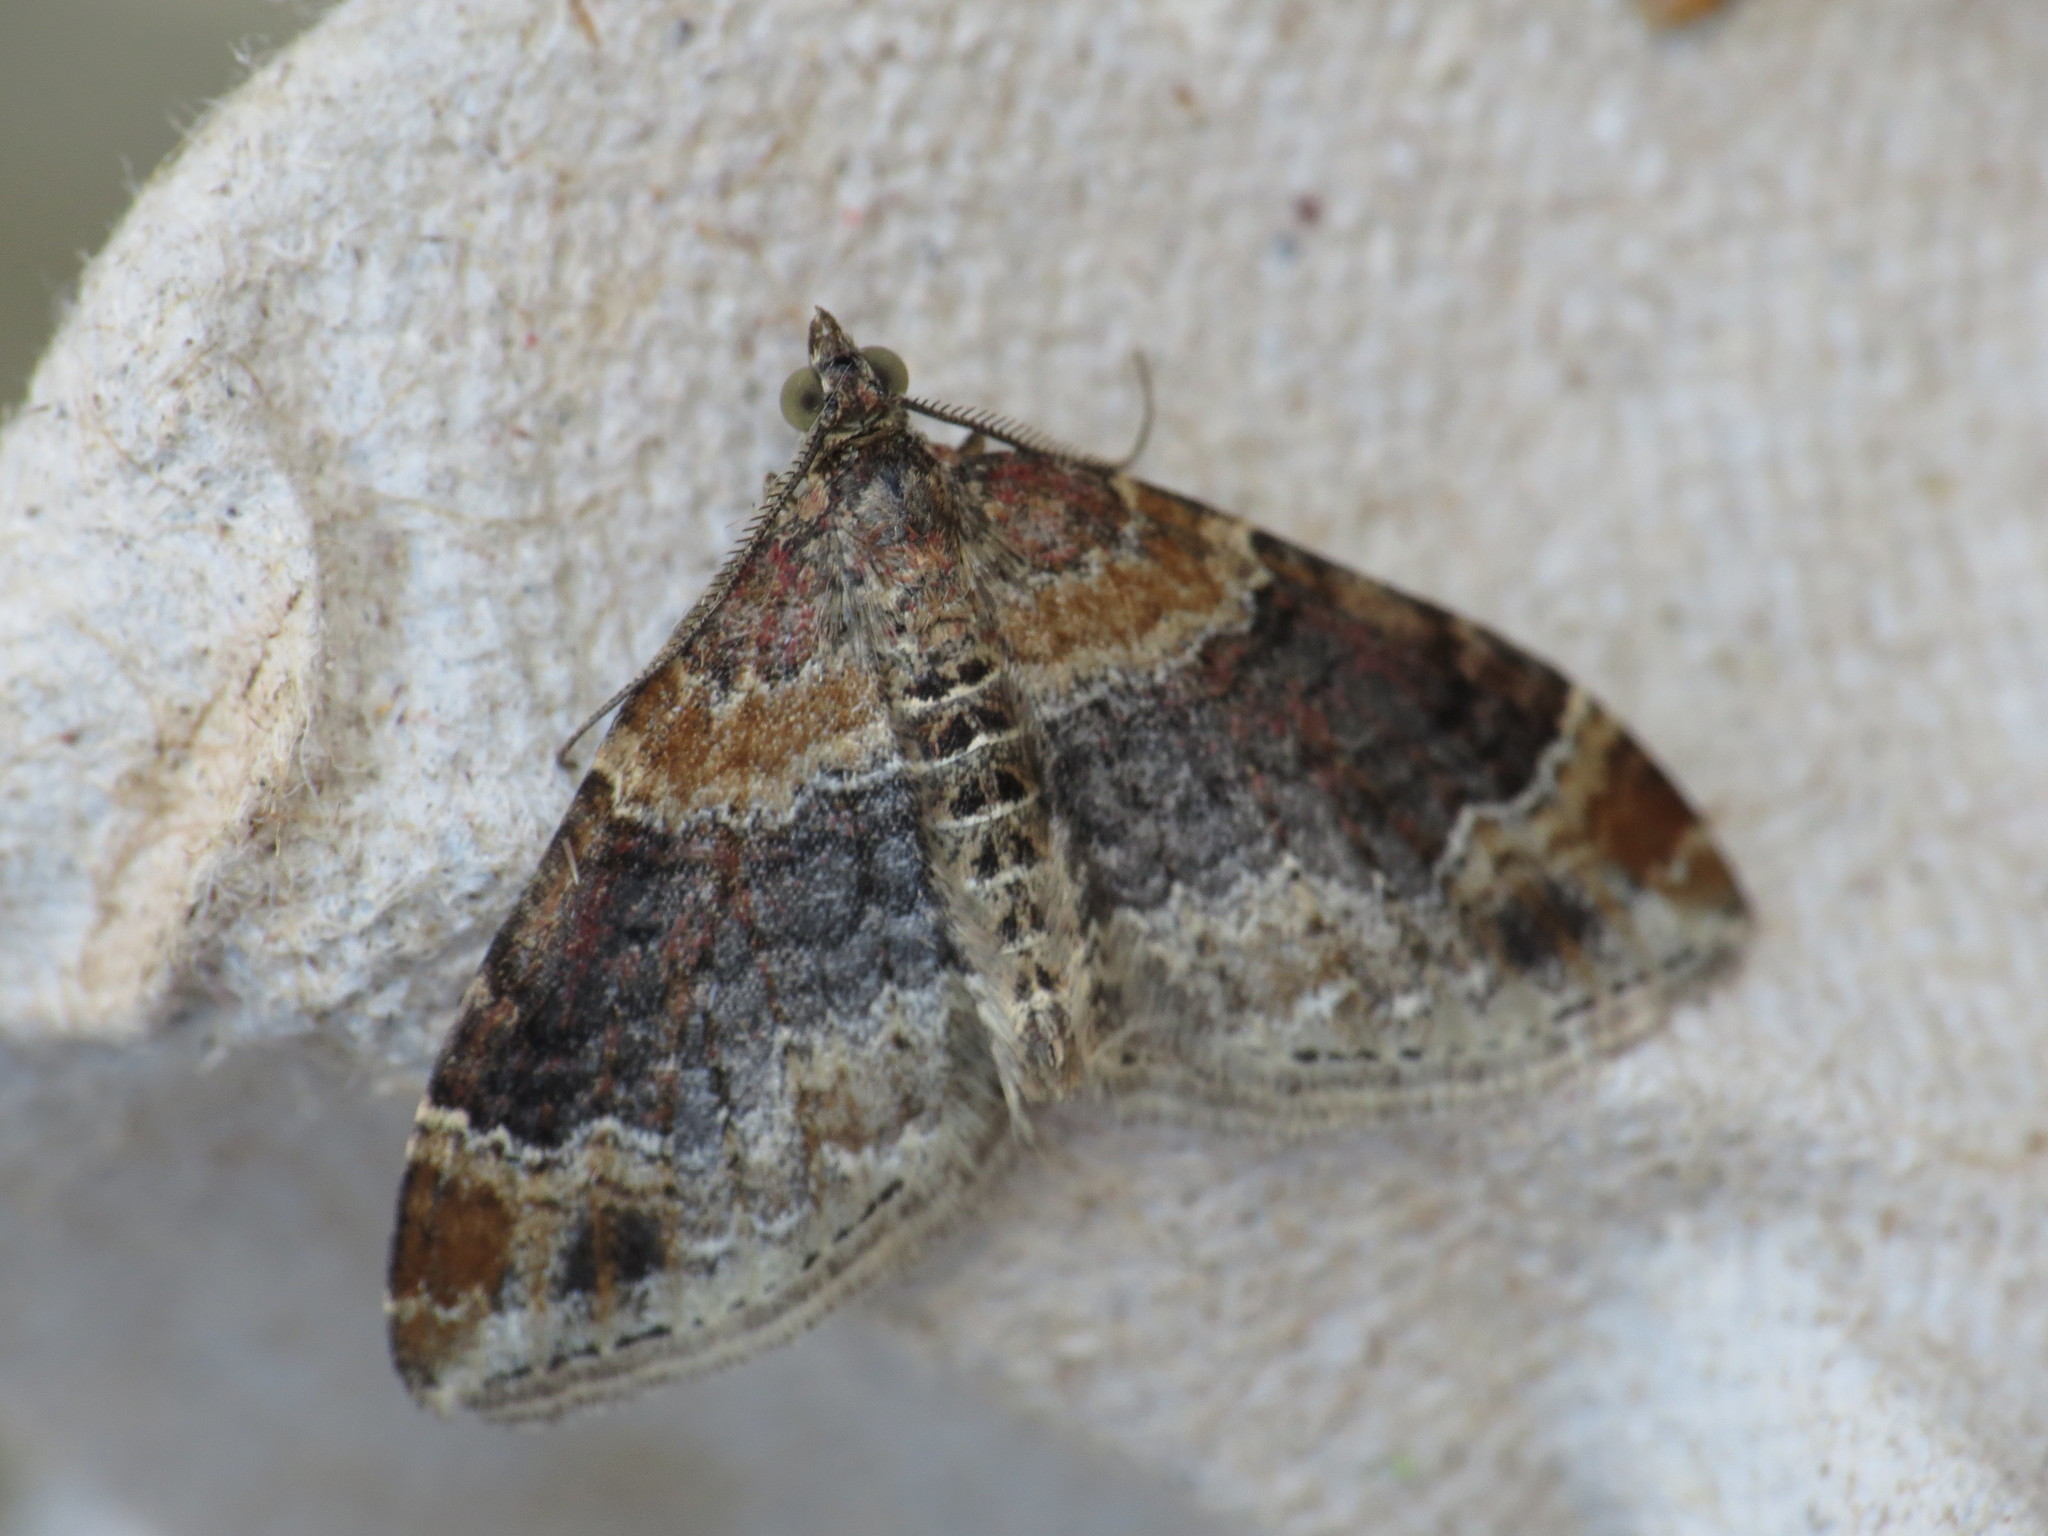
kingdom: Animalia
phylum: Arthropoda
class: Insecta
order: Lepidoptera
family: Geometridae
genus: Xanthorhoe
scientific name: Xanthorhoe ferrugata
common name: Dark-barred twin-spot carpet
